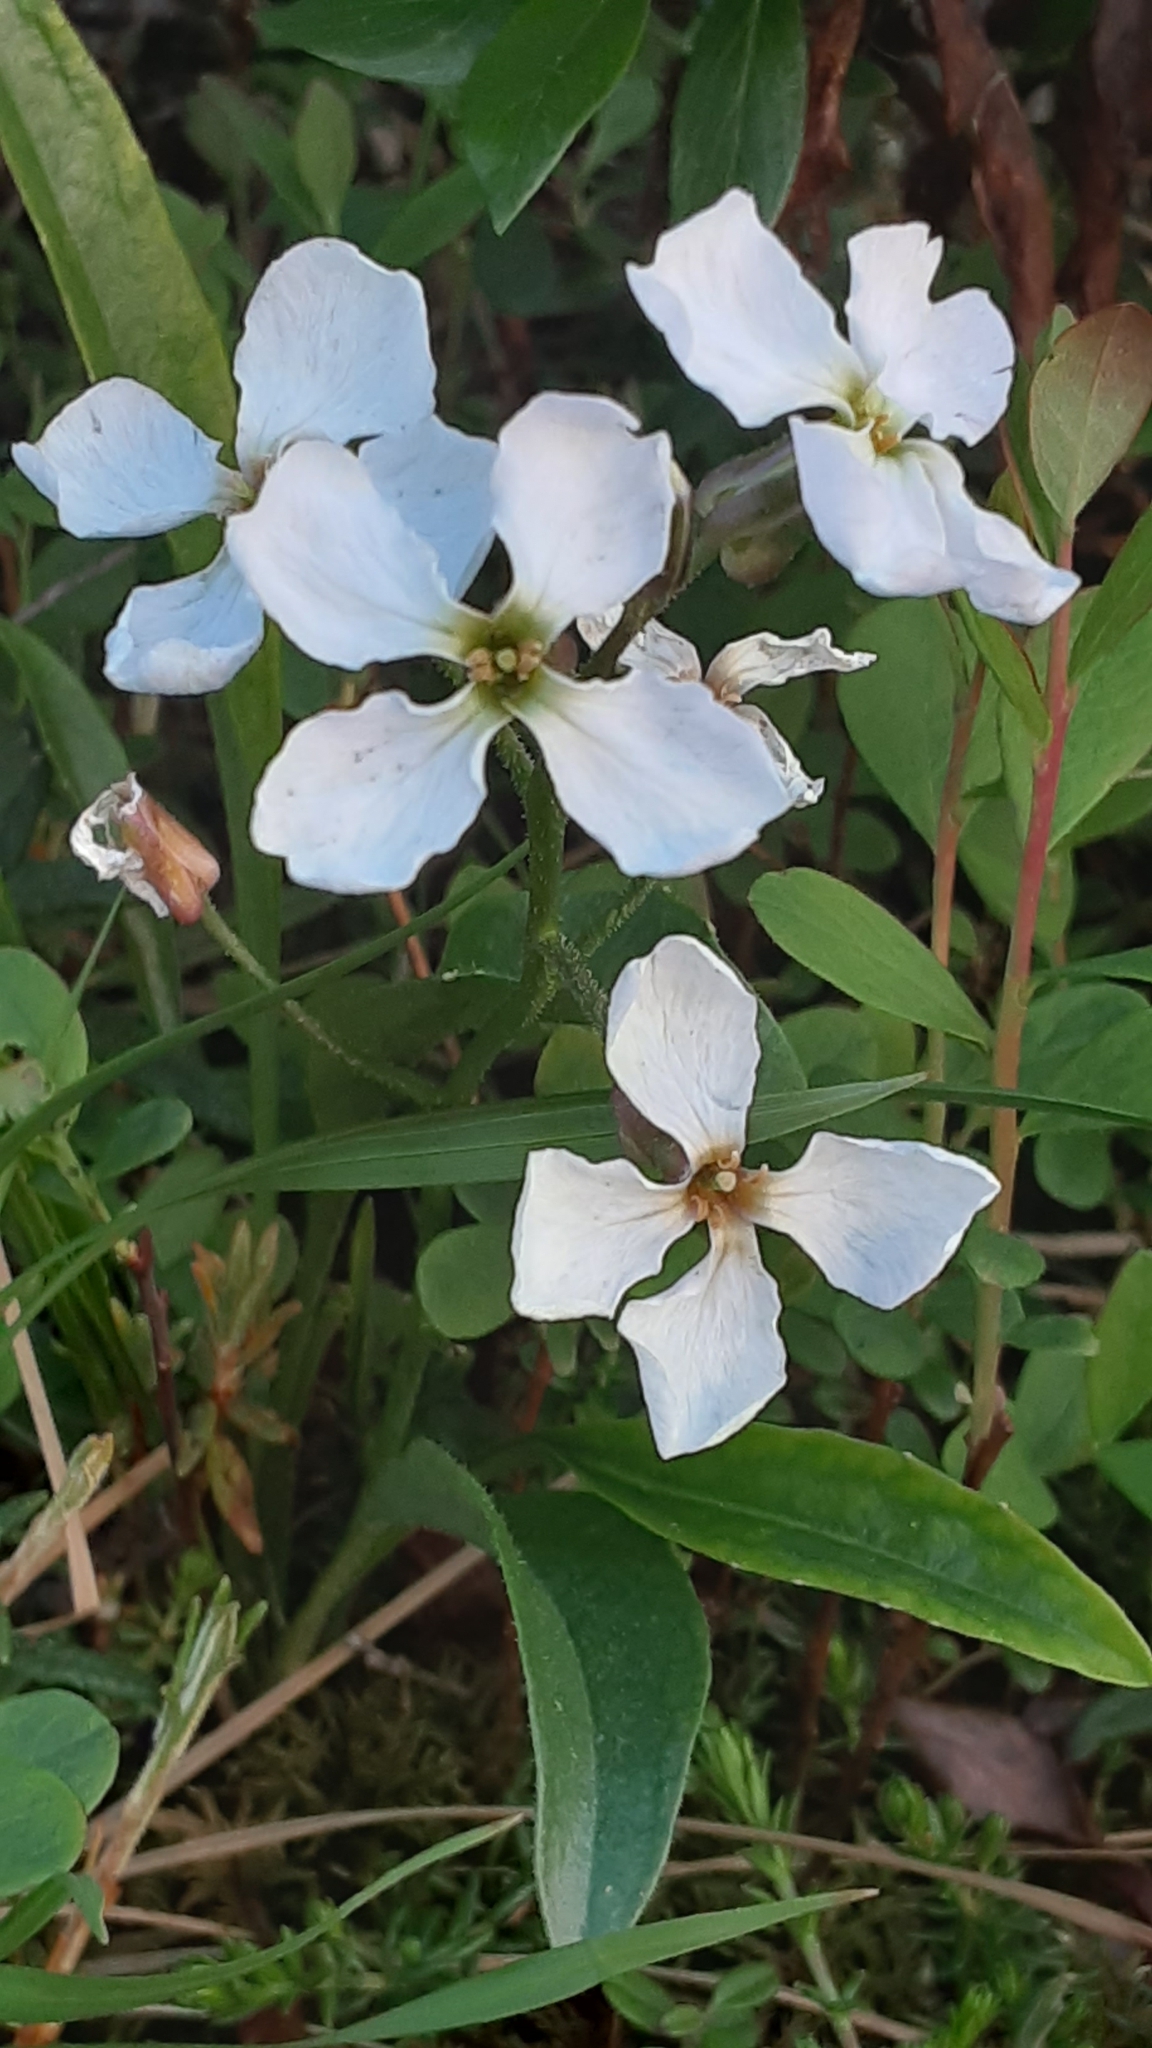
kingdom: Plantae
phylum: Tracheophyta
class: Magnoliopsida
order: Brassicales
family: Brassicaceae
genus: Parrya
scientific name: Parrya nudicaulis
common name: Naked-stemmed false wallflower
